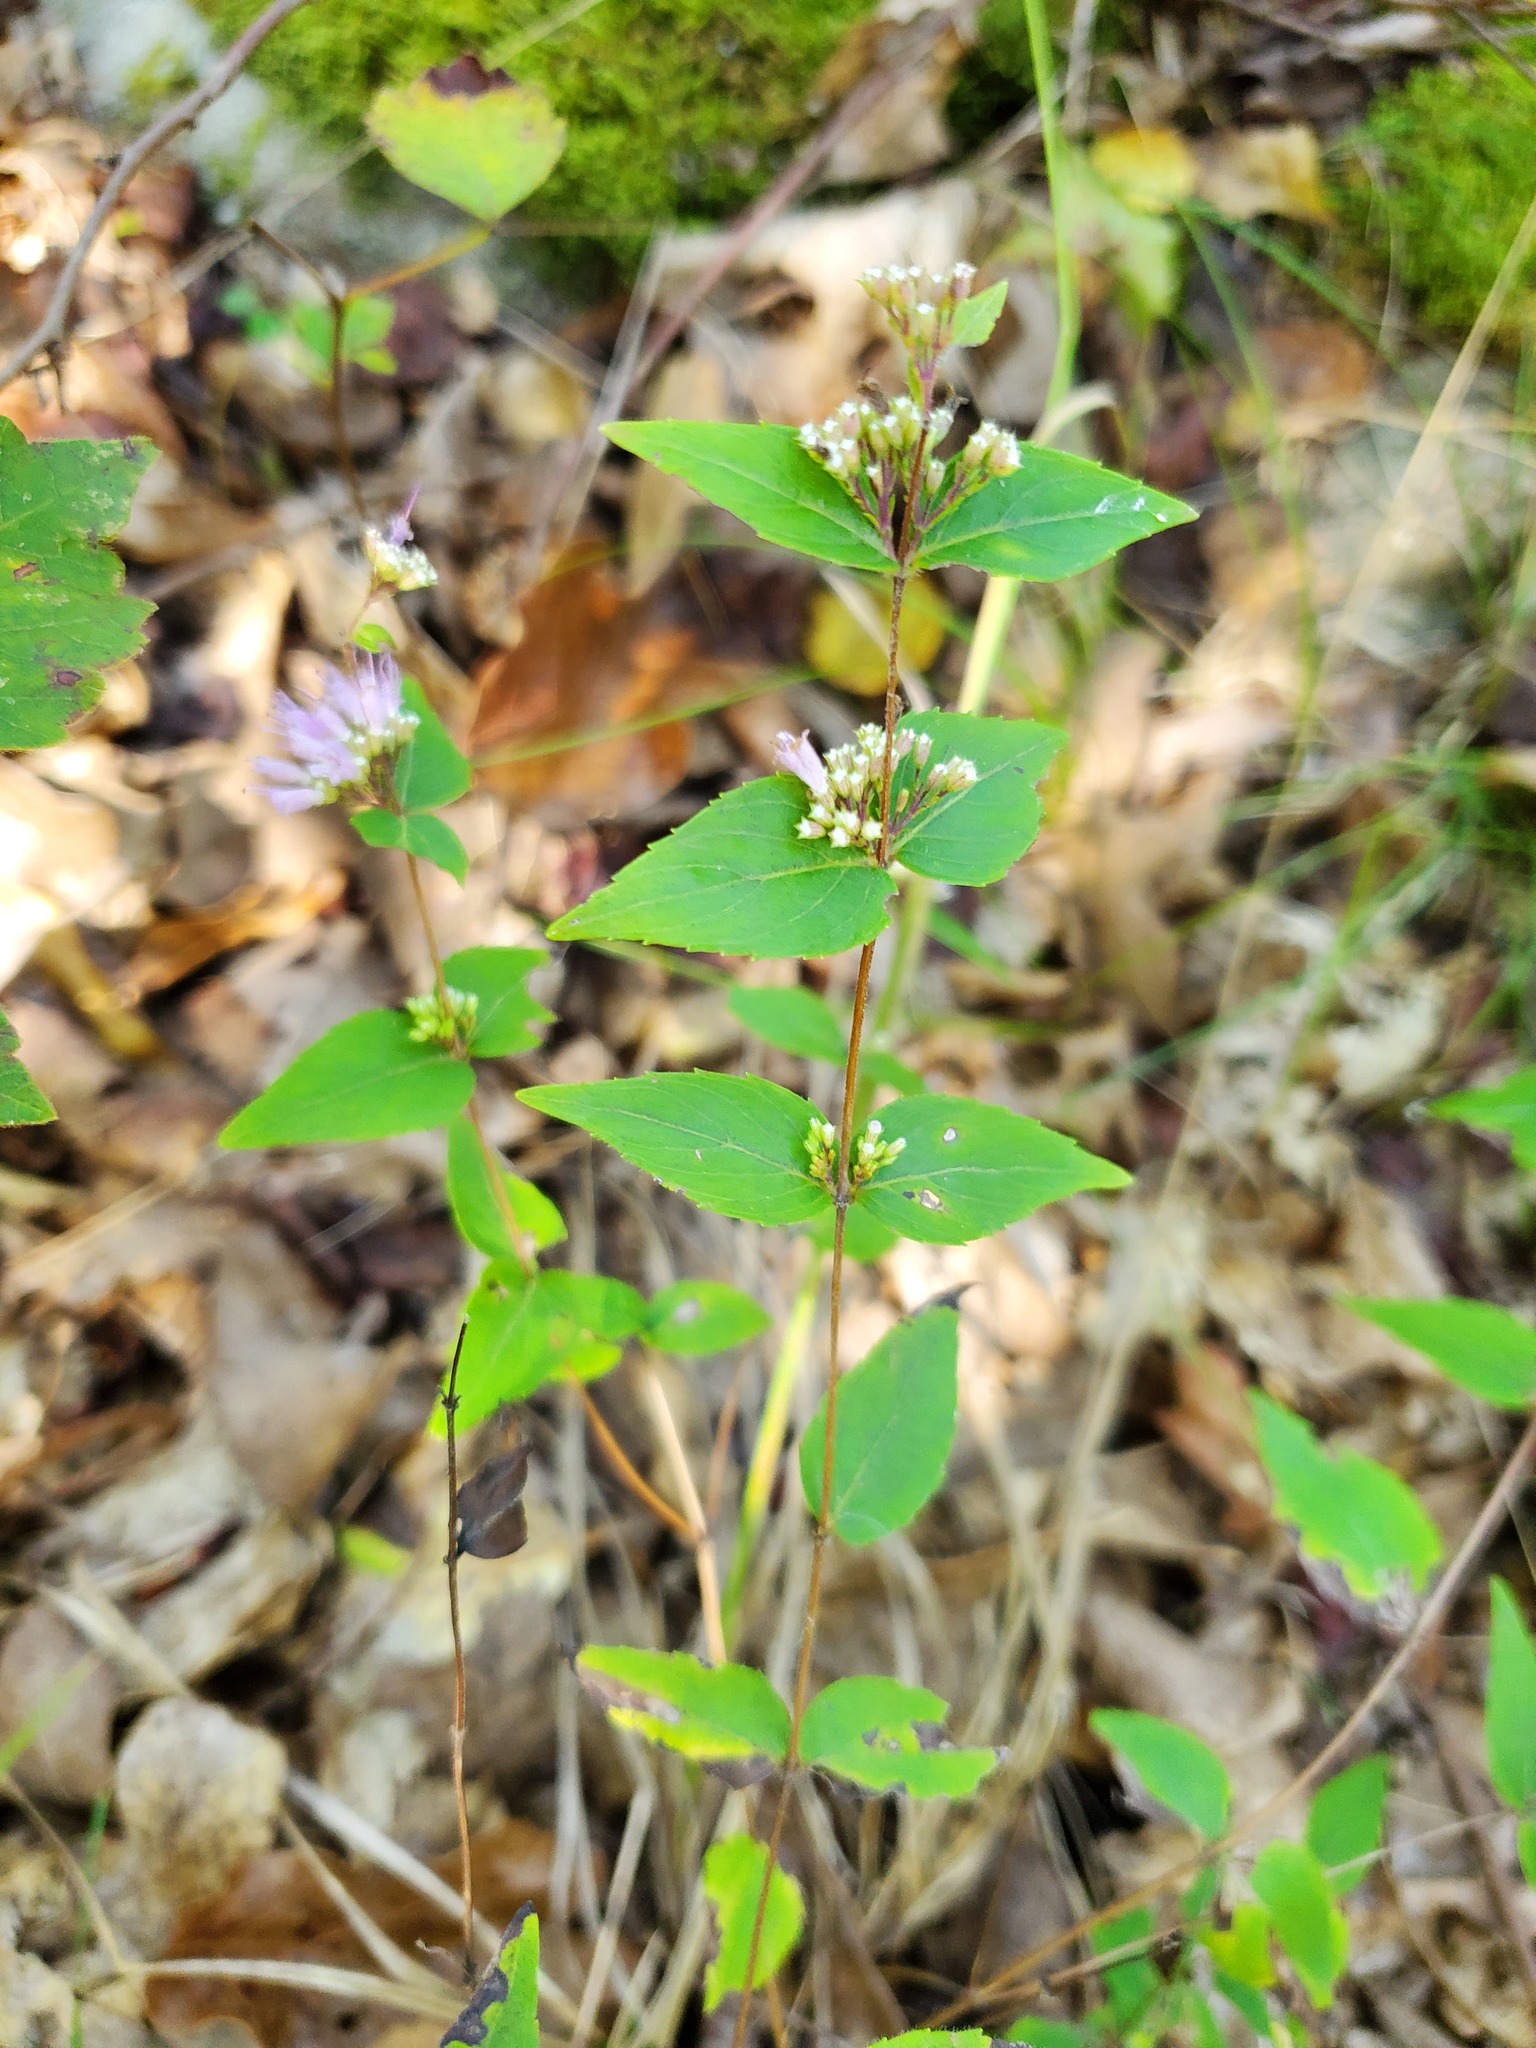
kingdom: Plantae
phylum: Tracheophyta
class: Magnoliopsida
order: Lamiales
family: Lamiaceae
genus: Cunila
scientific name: Cunila origanoides
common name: American dittany
